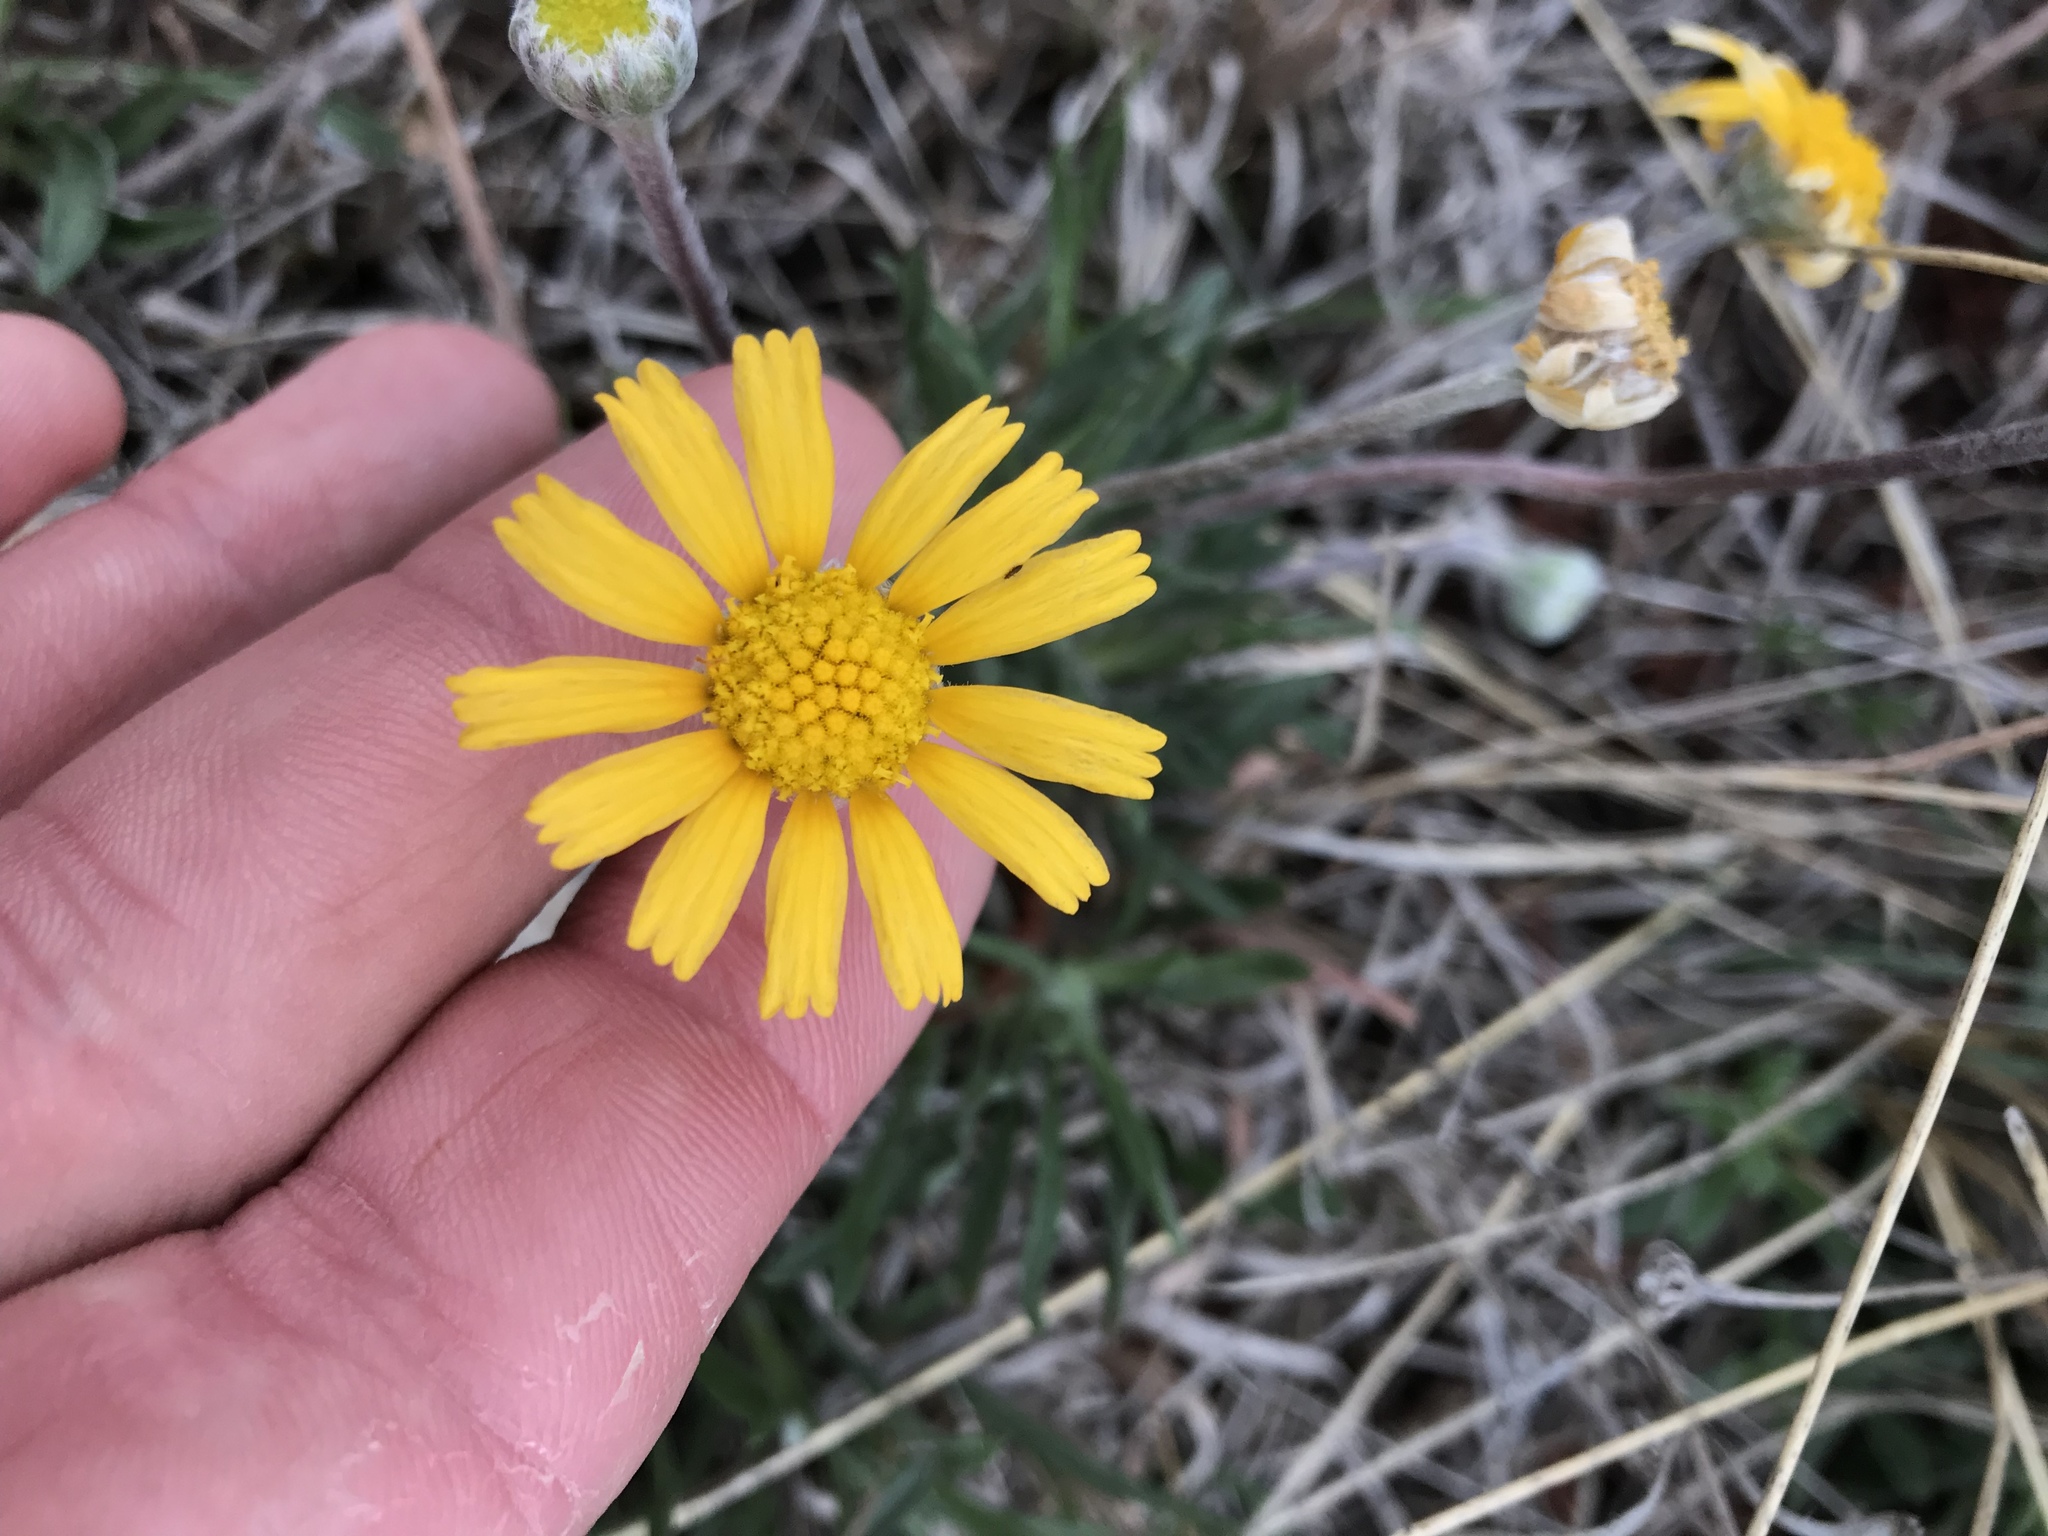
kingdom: Plantae
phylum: Tracheophyta
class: Magnoliopsida
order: Asterales
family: Asteraceae
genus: Tetraneuris
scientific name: Tetraneuris scaposa
